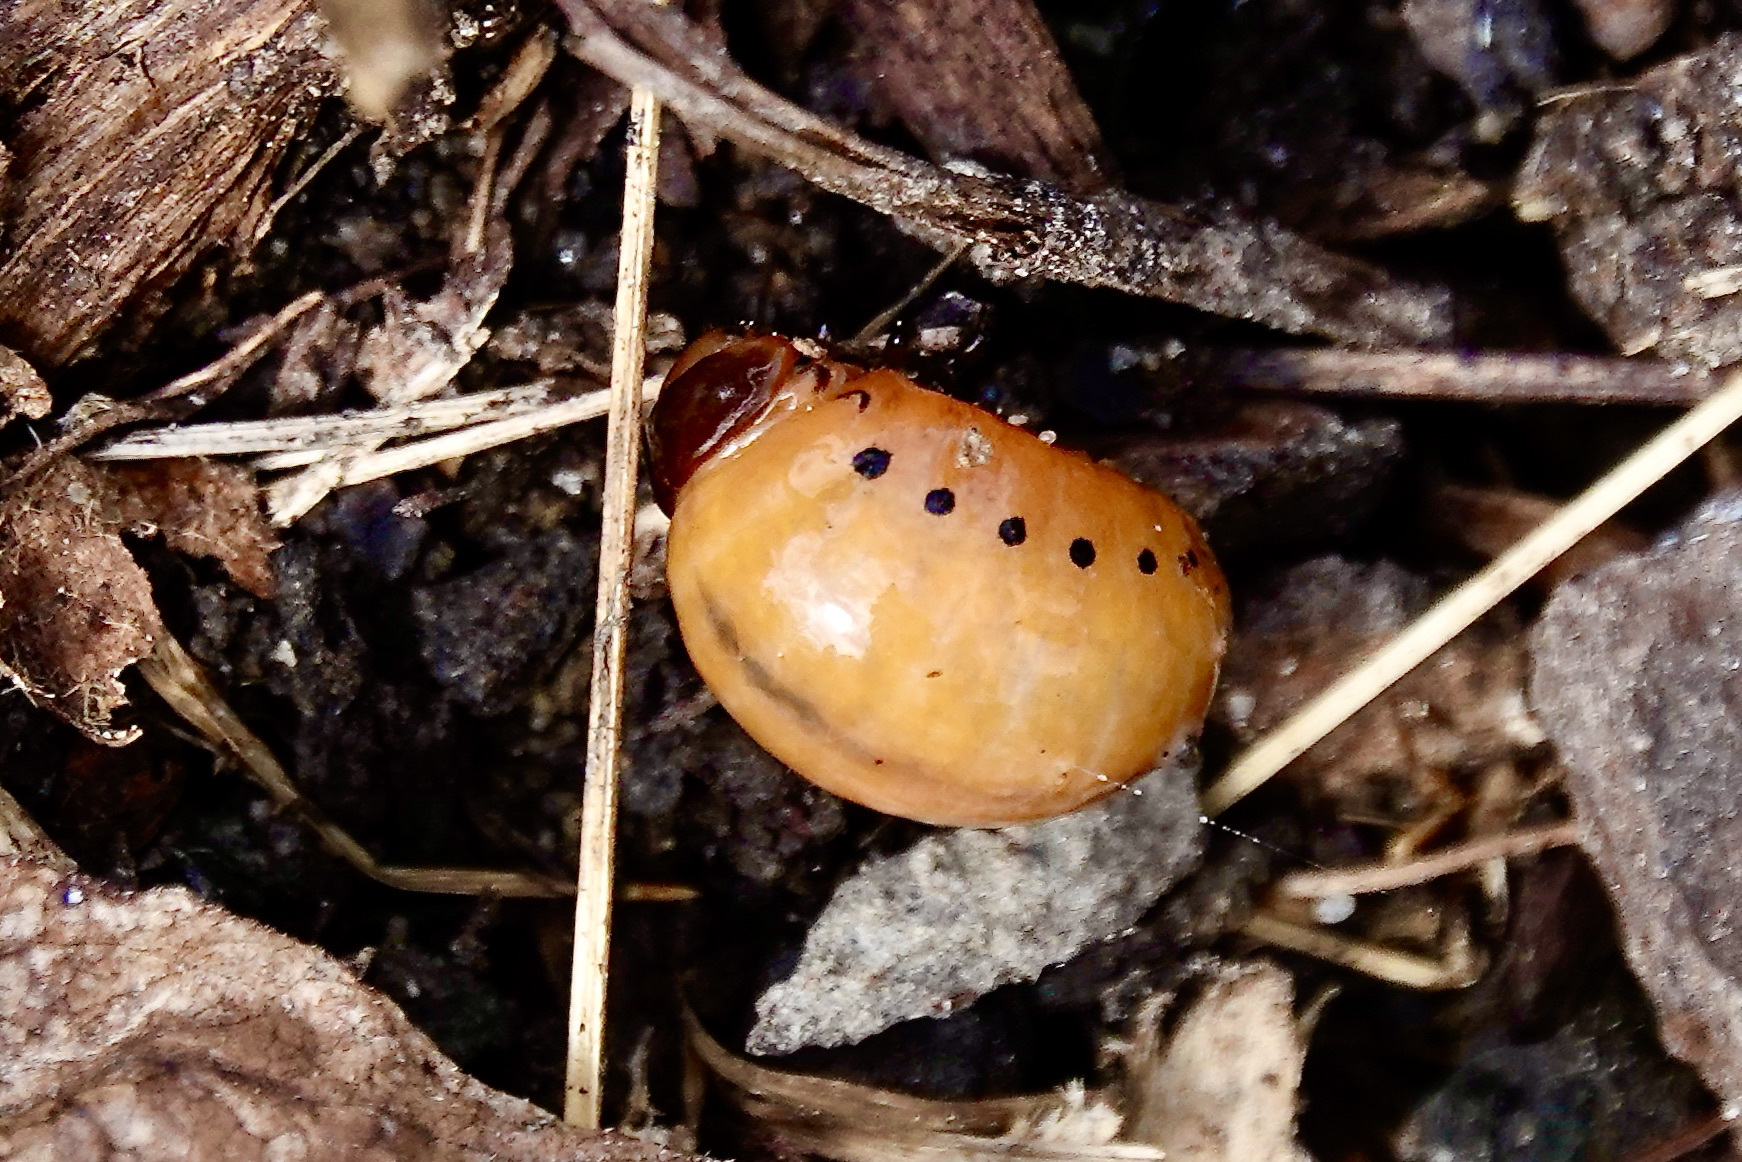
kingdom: Animalia
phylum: Arthropoda
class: Insecta
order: Coleoptera
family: Chrysomelidae
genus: Labidomera
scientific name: Labidomera clivicollis
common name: Swamp milkweed leaf beetle
